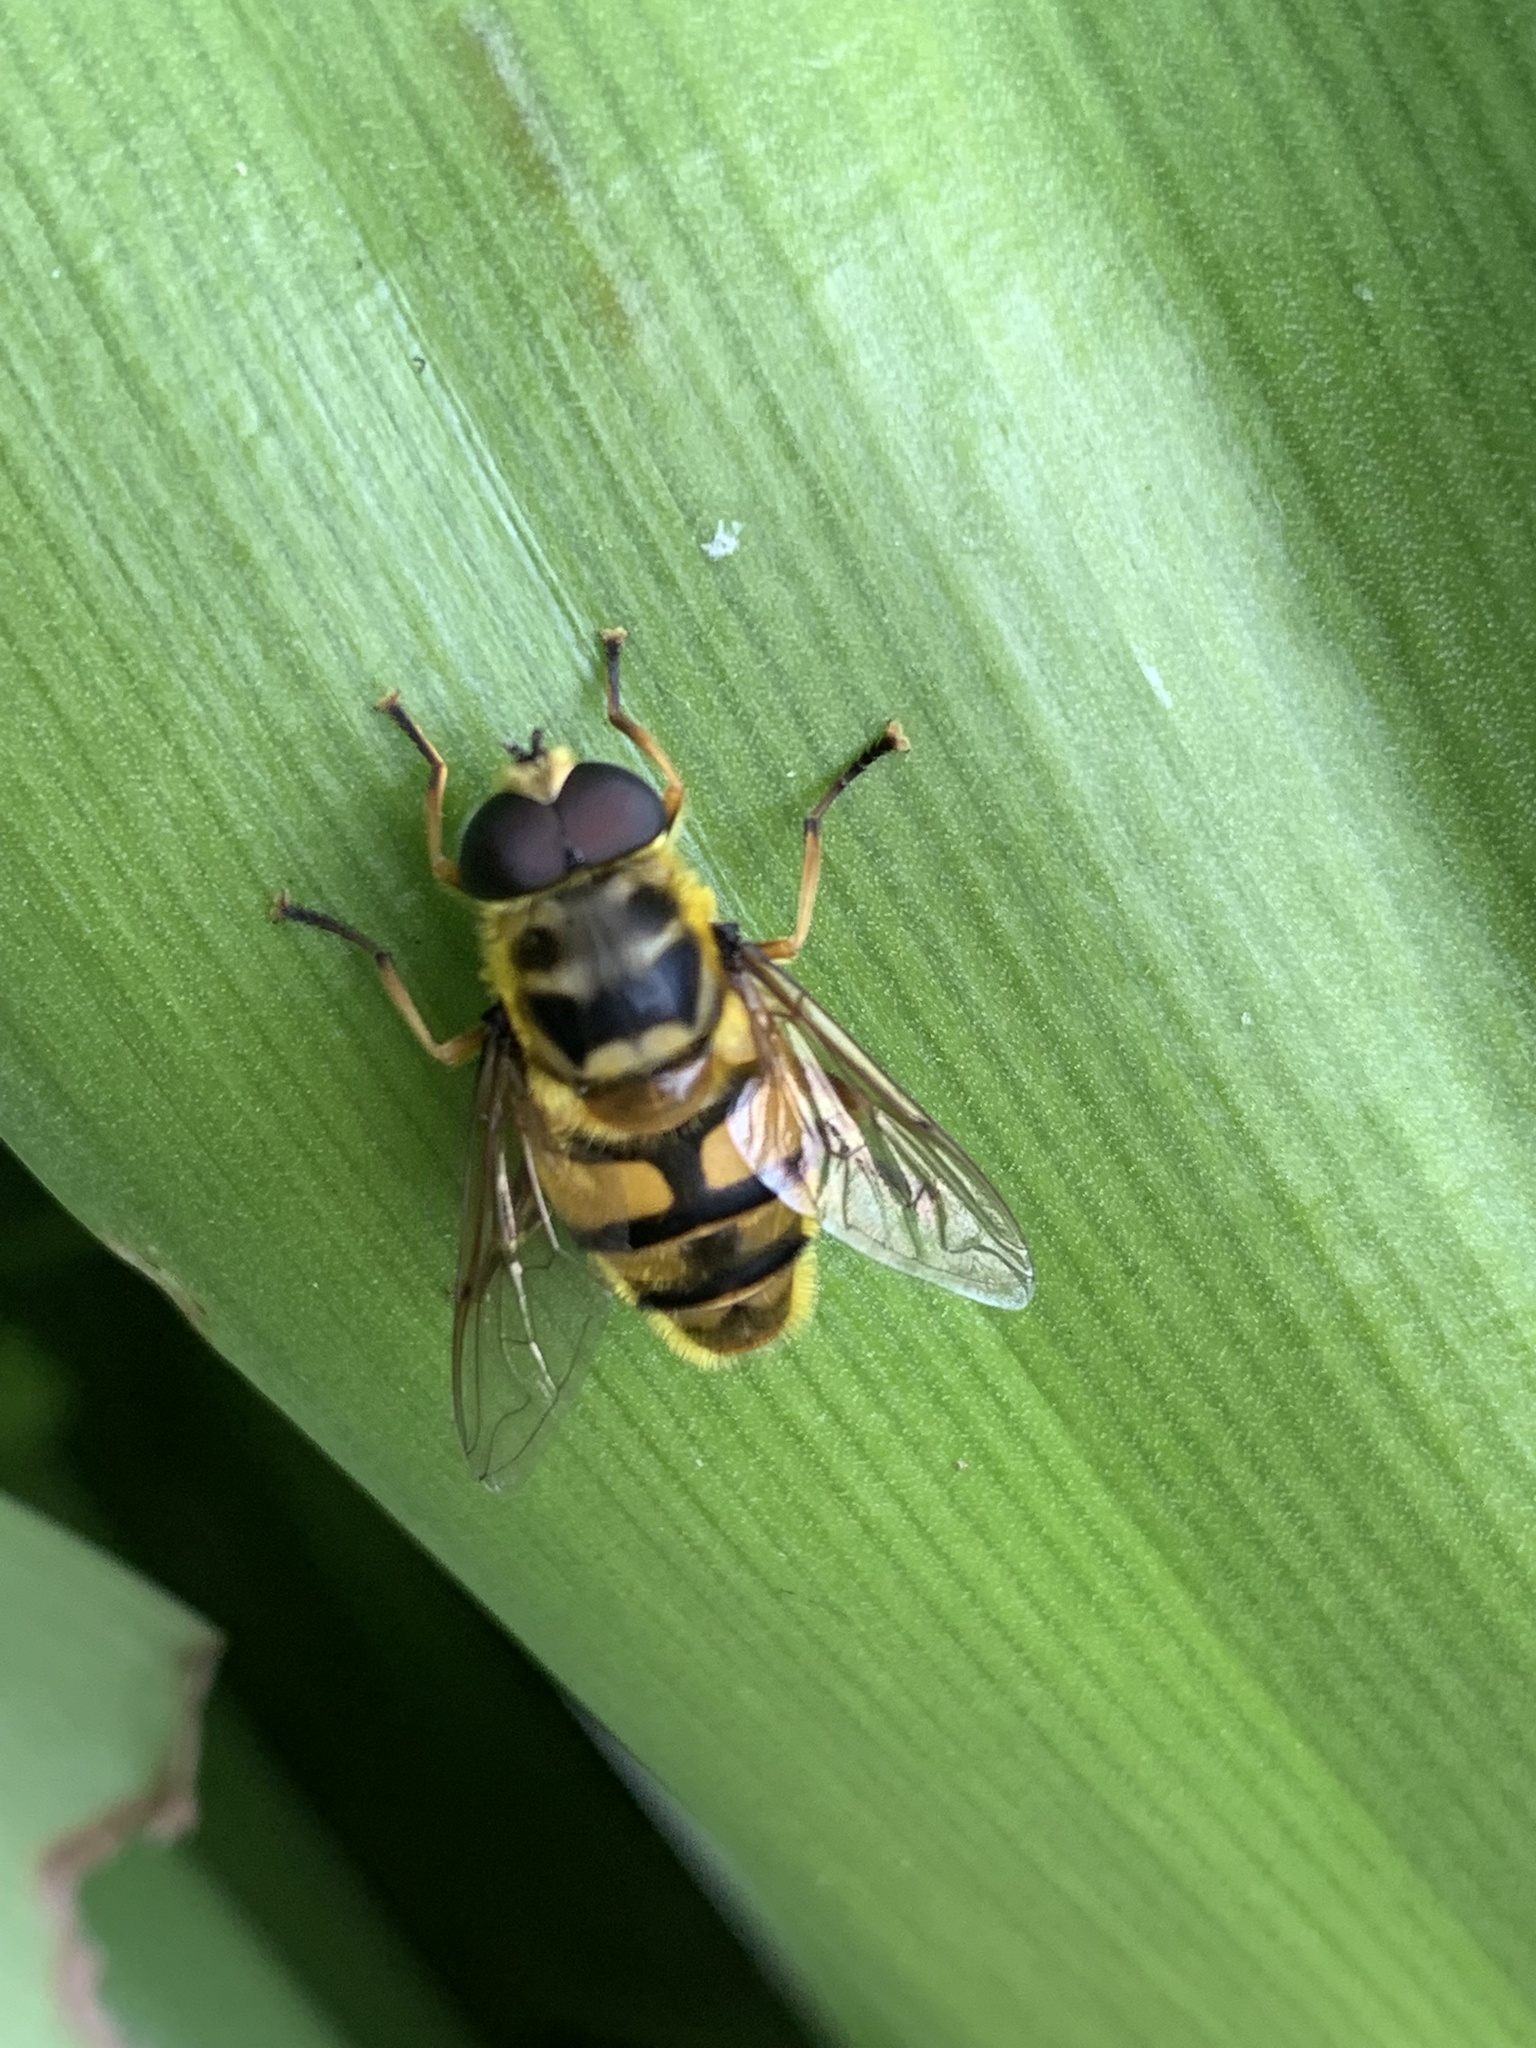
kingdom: Animalia
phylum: Arthropoda
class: Insecta
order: Diptera
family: Syrphidae
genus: Myathropa
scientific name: Myathropa florea
